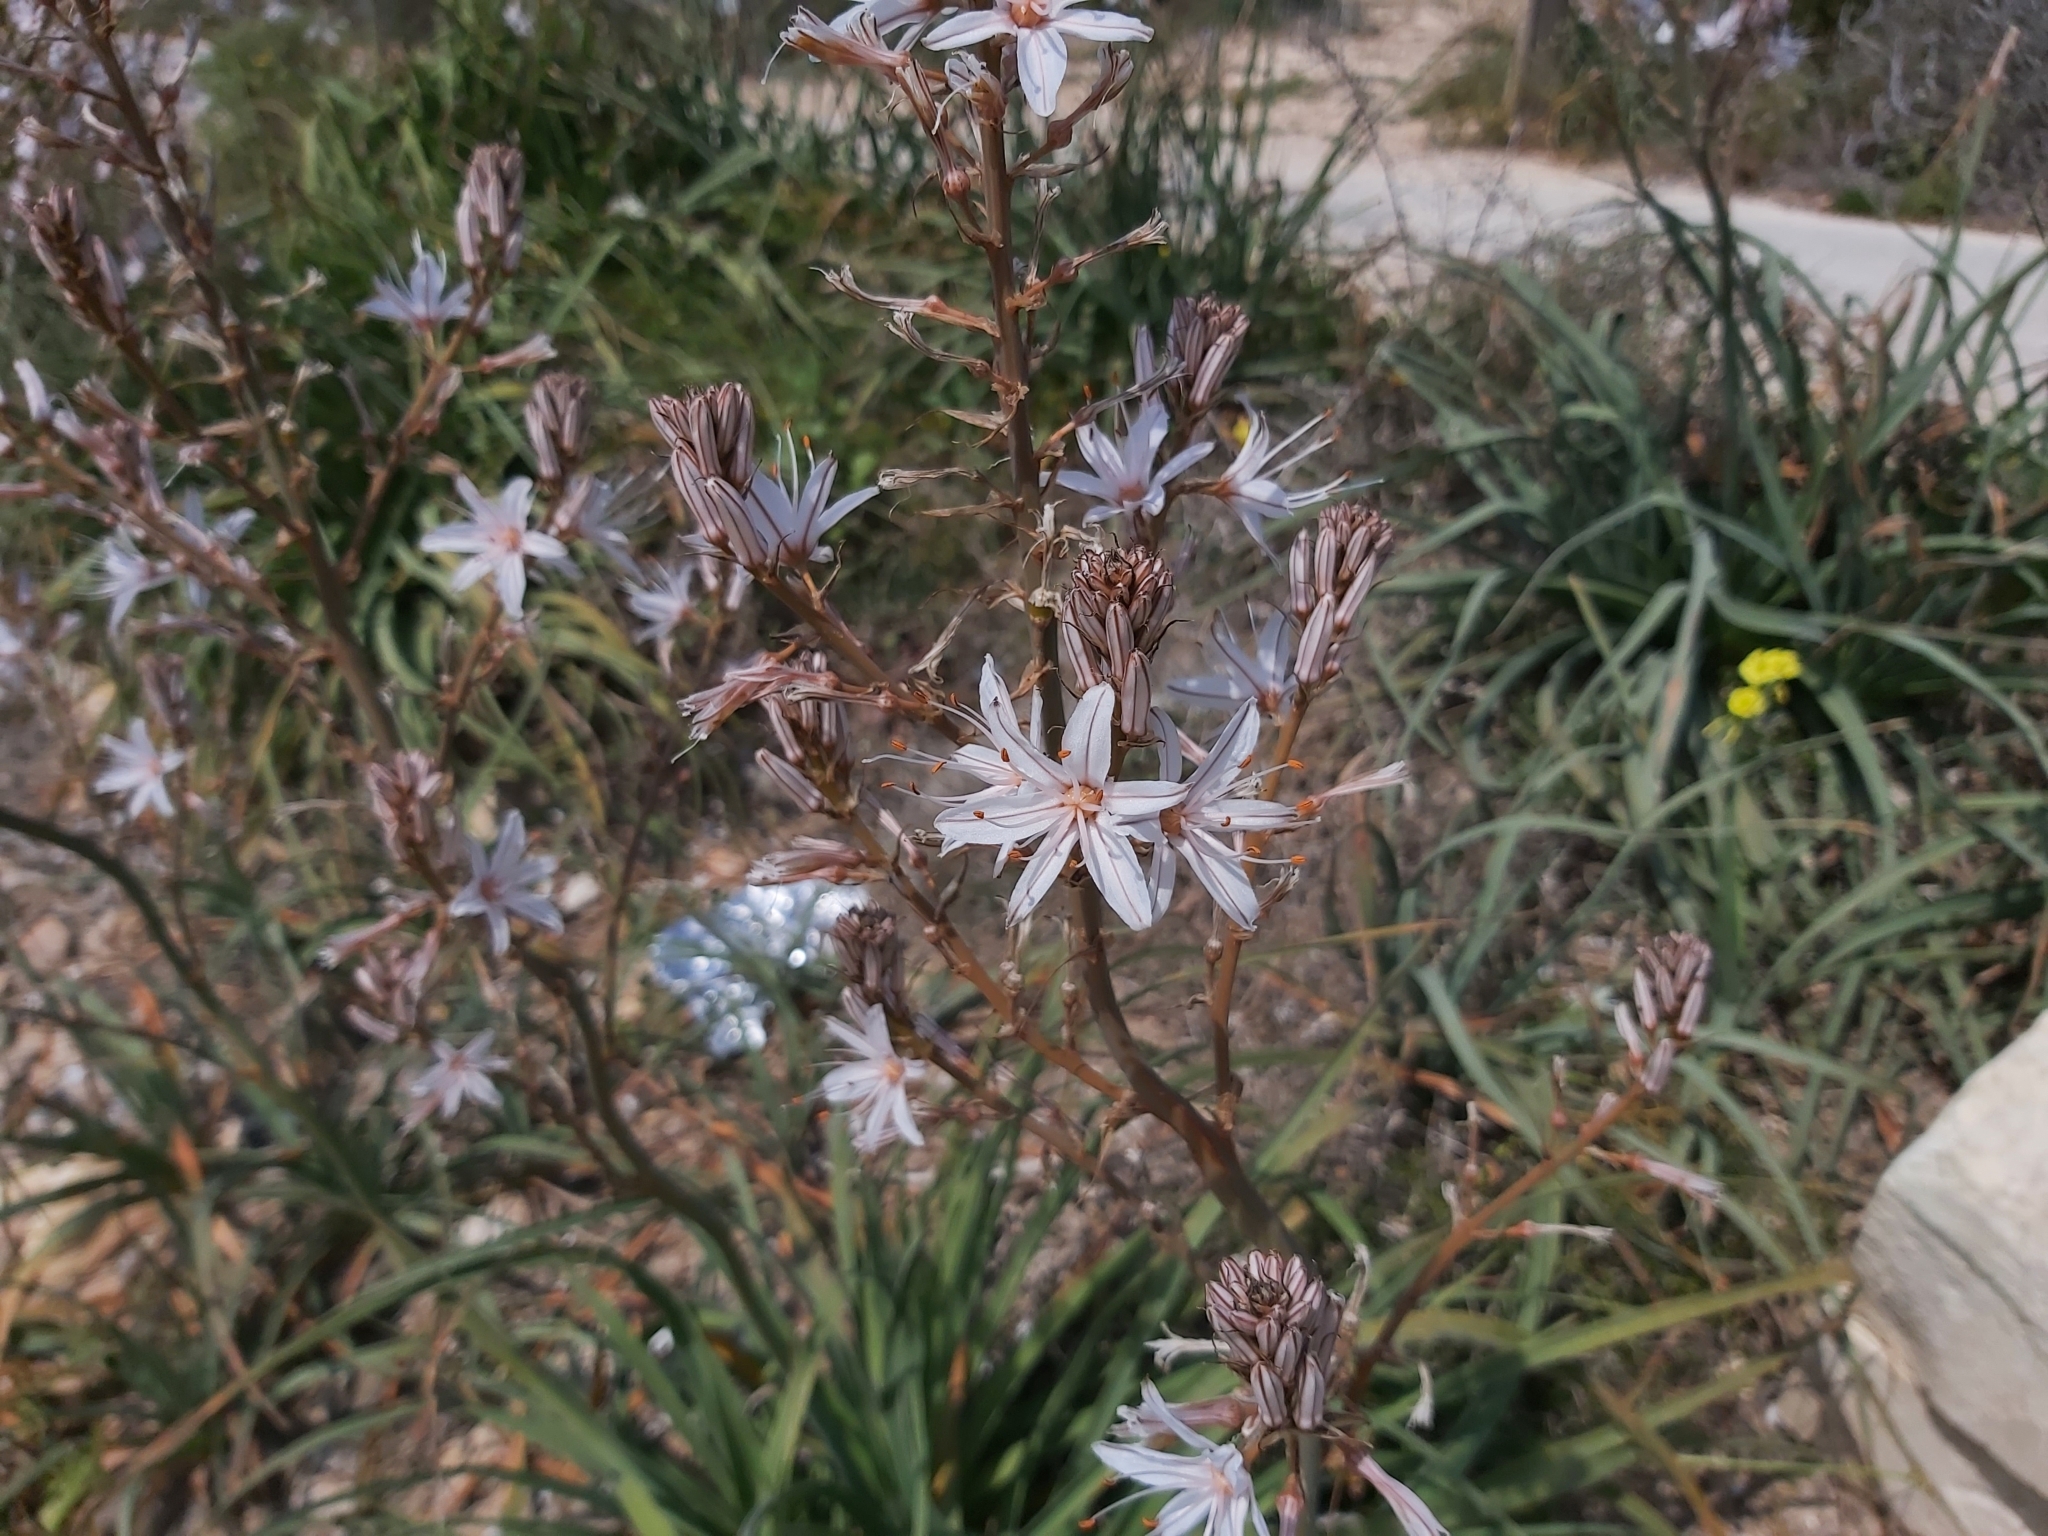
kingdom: Plantae
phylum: Tracheophyta
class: Liliopsida
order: Asparagales
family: Asphodelaceae
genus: Asphodelus
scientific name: Asphodelus ramosus
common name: Silverrod
